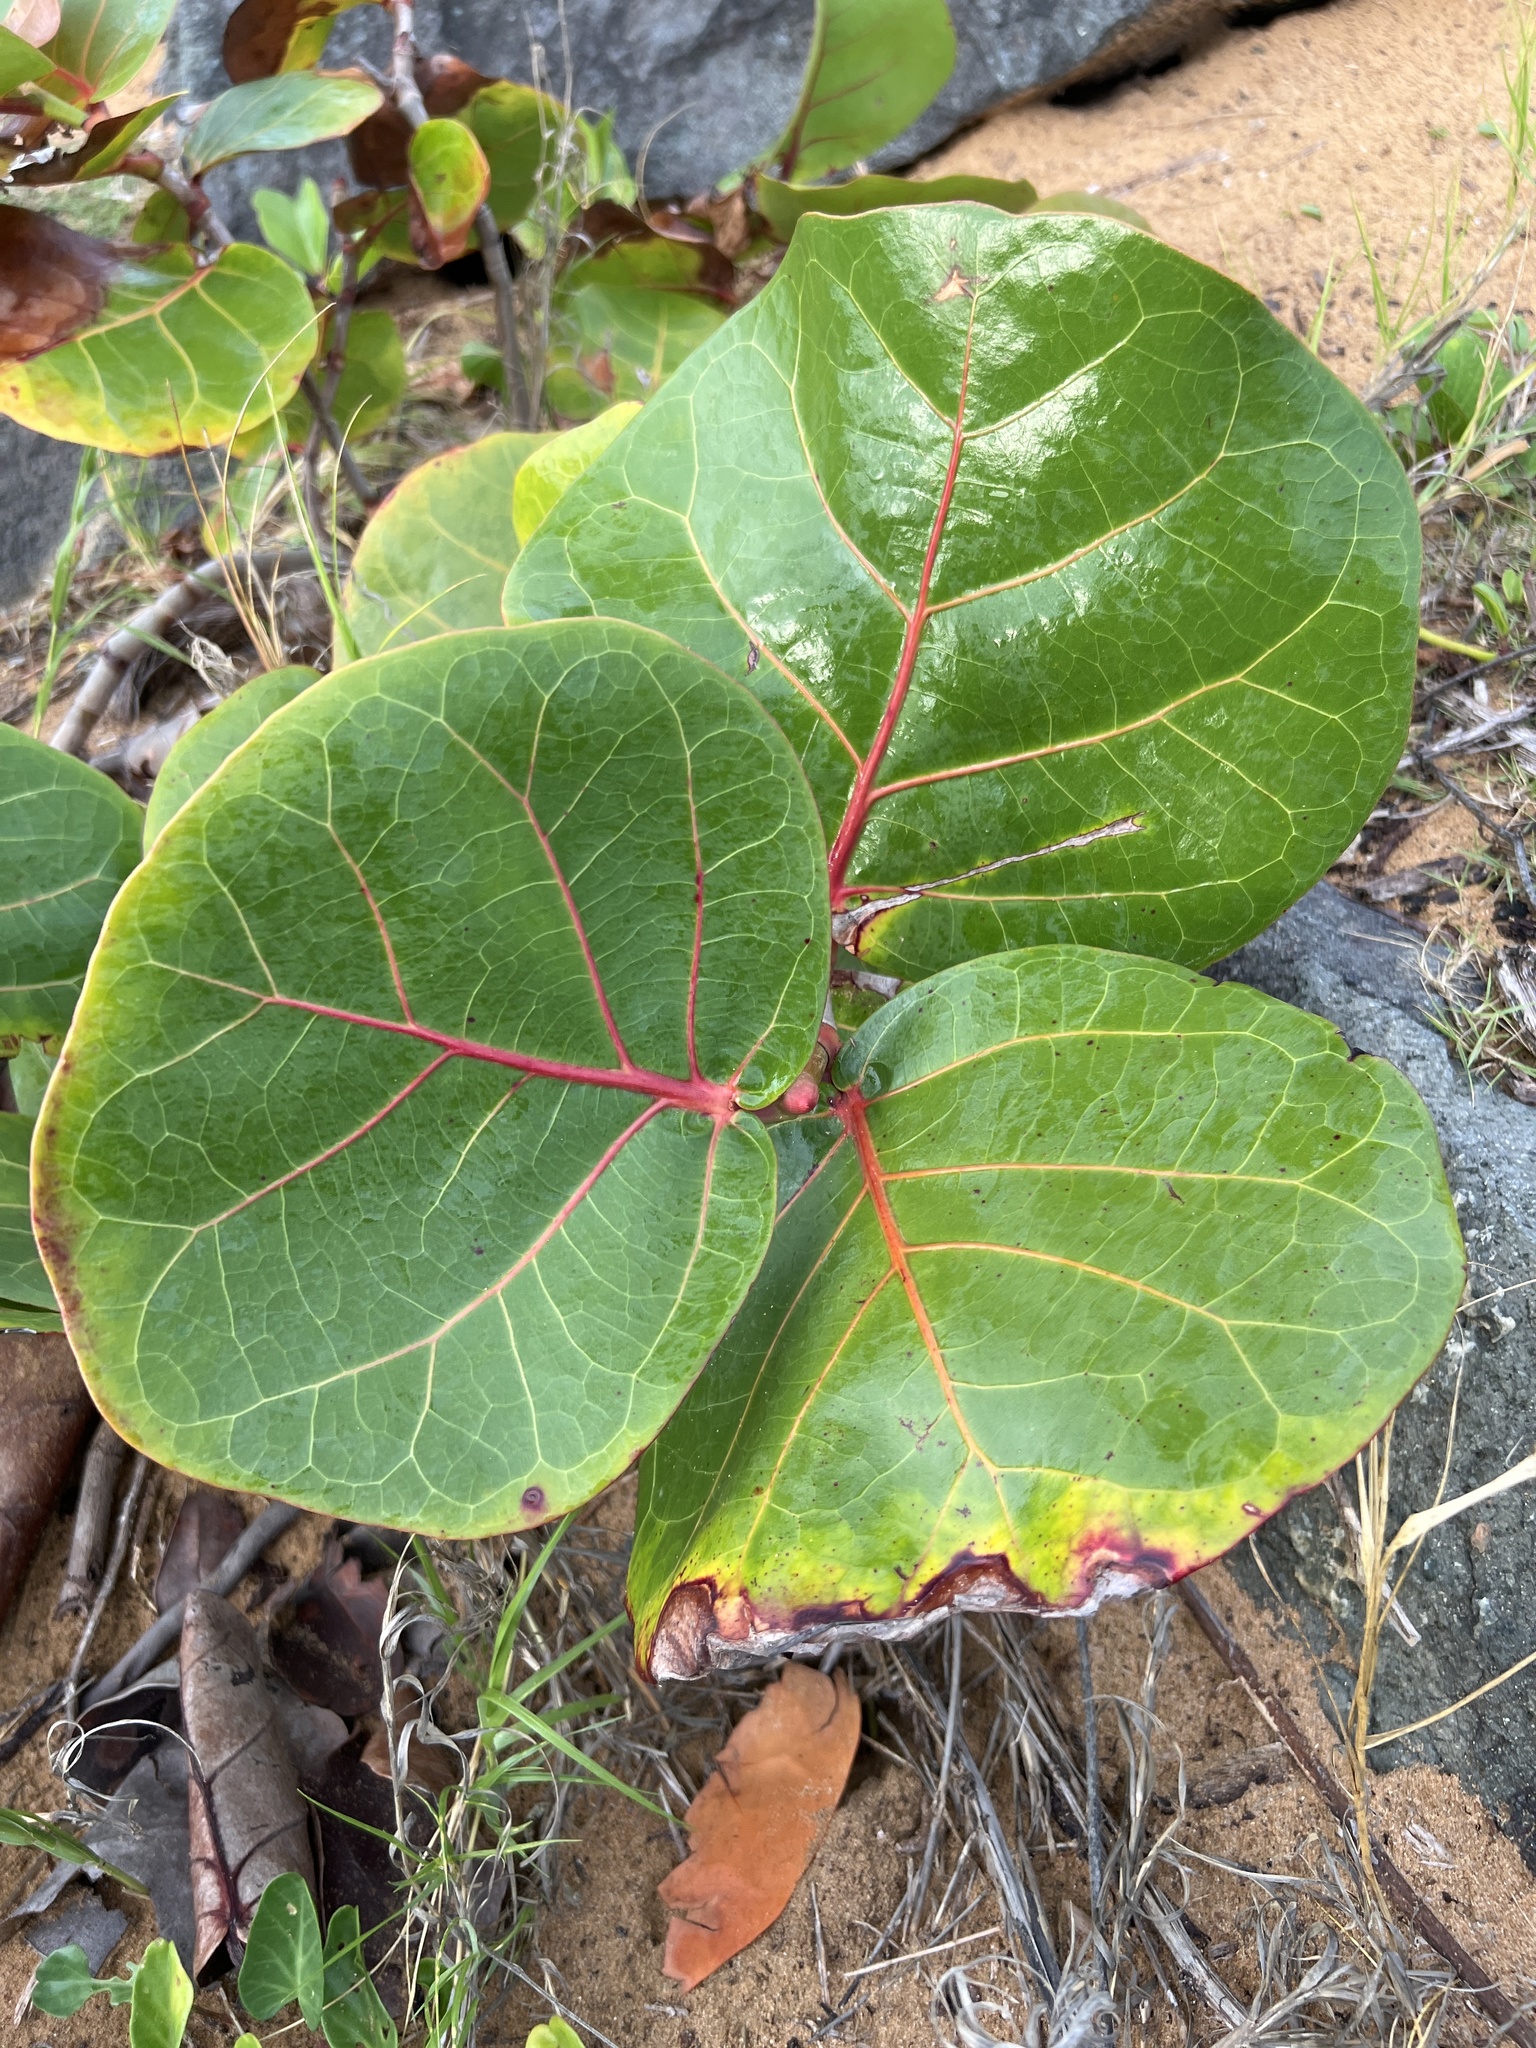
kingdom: Plantae
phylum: Tracheophyta
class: Magnoliopsida
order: Caryophyllales
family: Polygonaceae
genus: Coccoloba
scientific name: Coccoloba uvifera
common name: Seagrape
